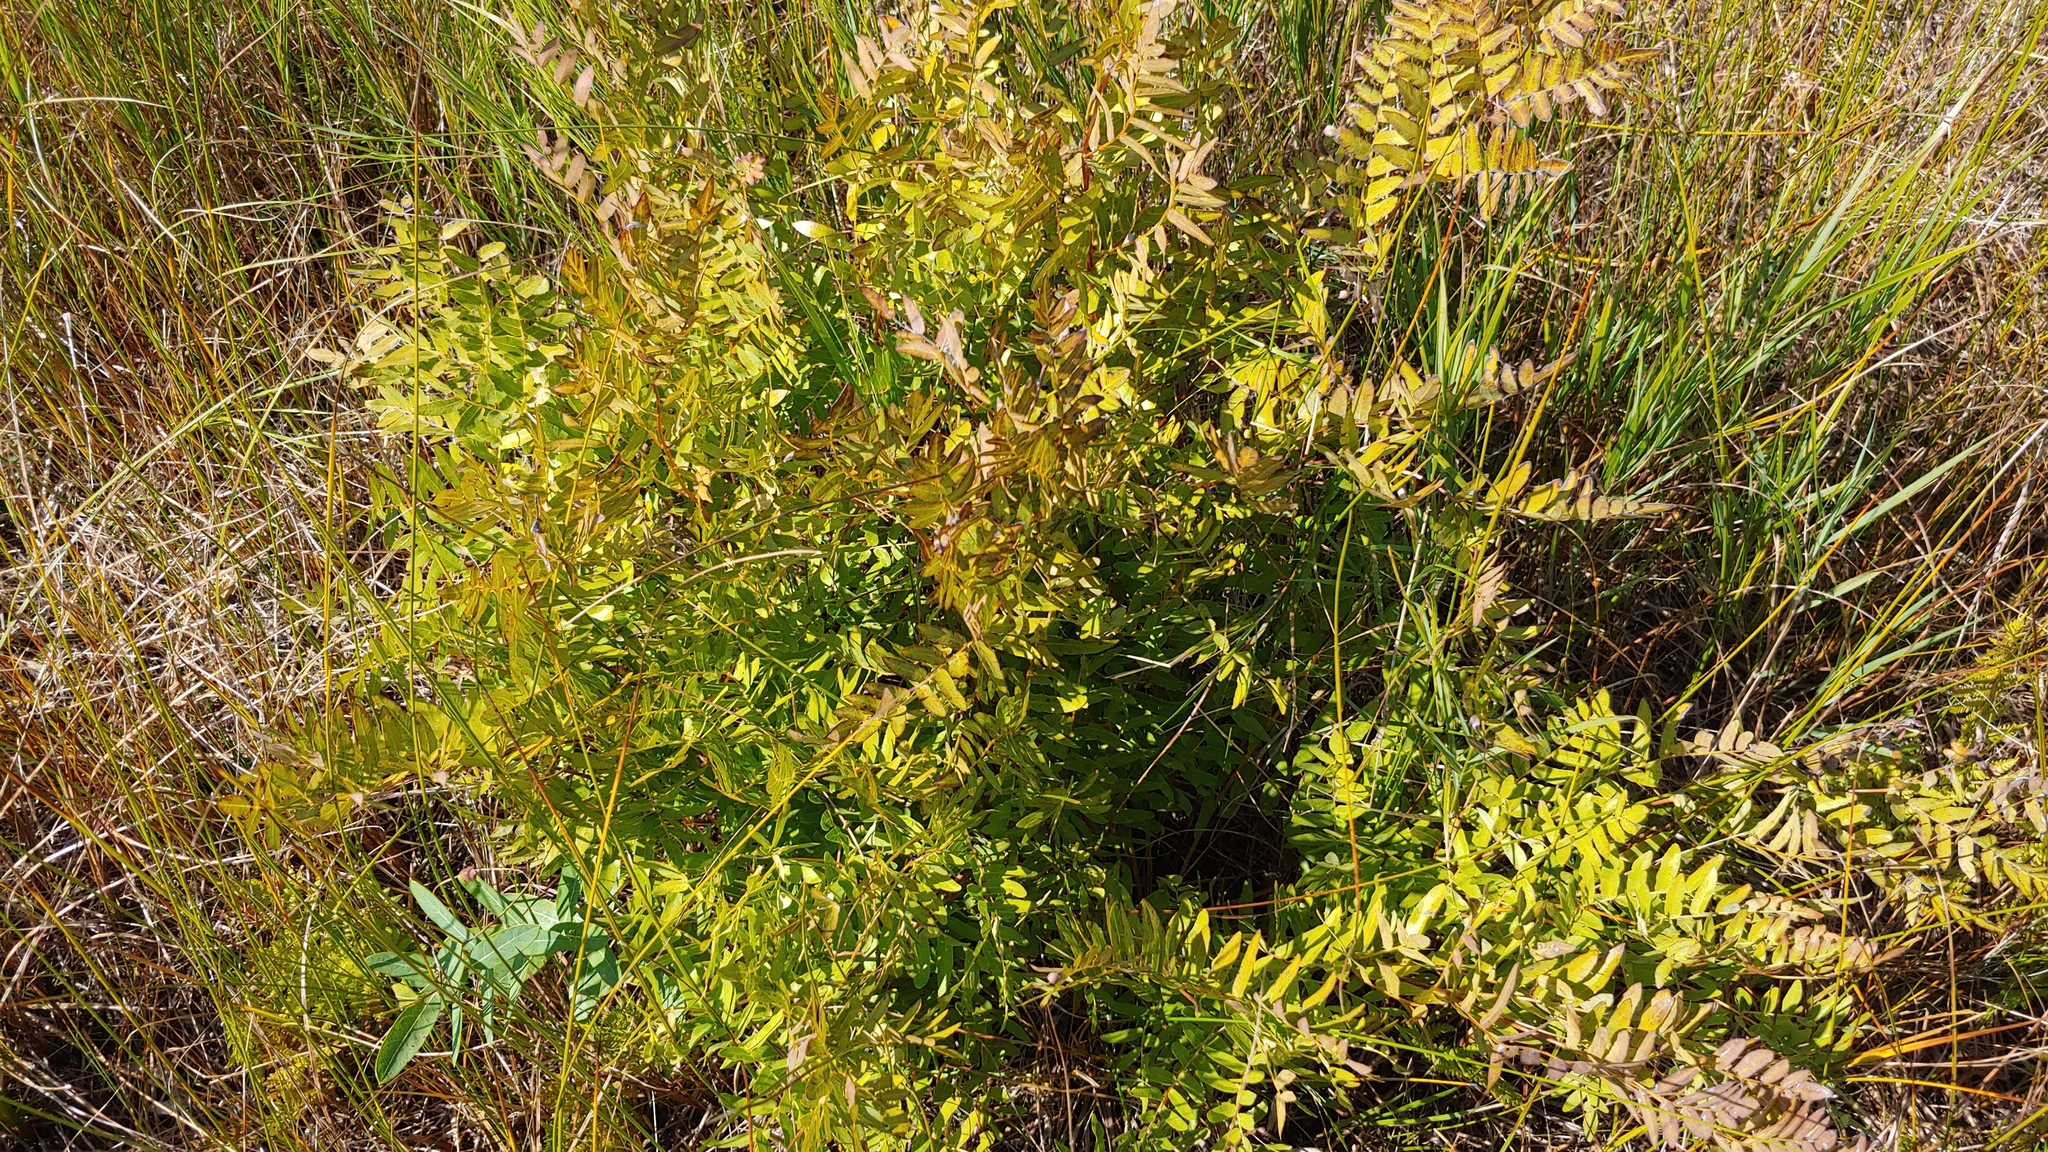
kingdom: Plantae
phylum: Tracheophyta
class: Polypodiopsida
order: Osmundales
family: Osmundaceae
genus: Osmunda
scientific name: Osmunda spectabilis
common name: American royal fern
